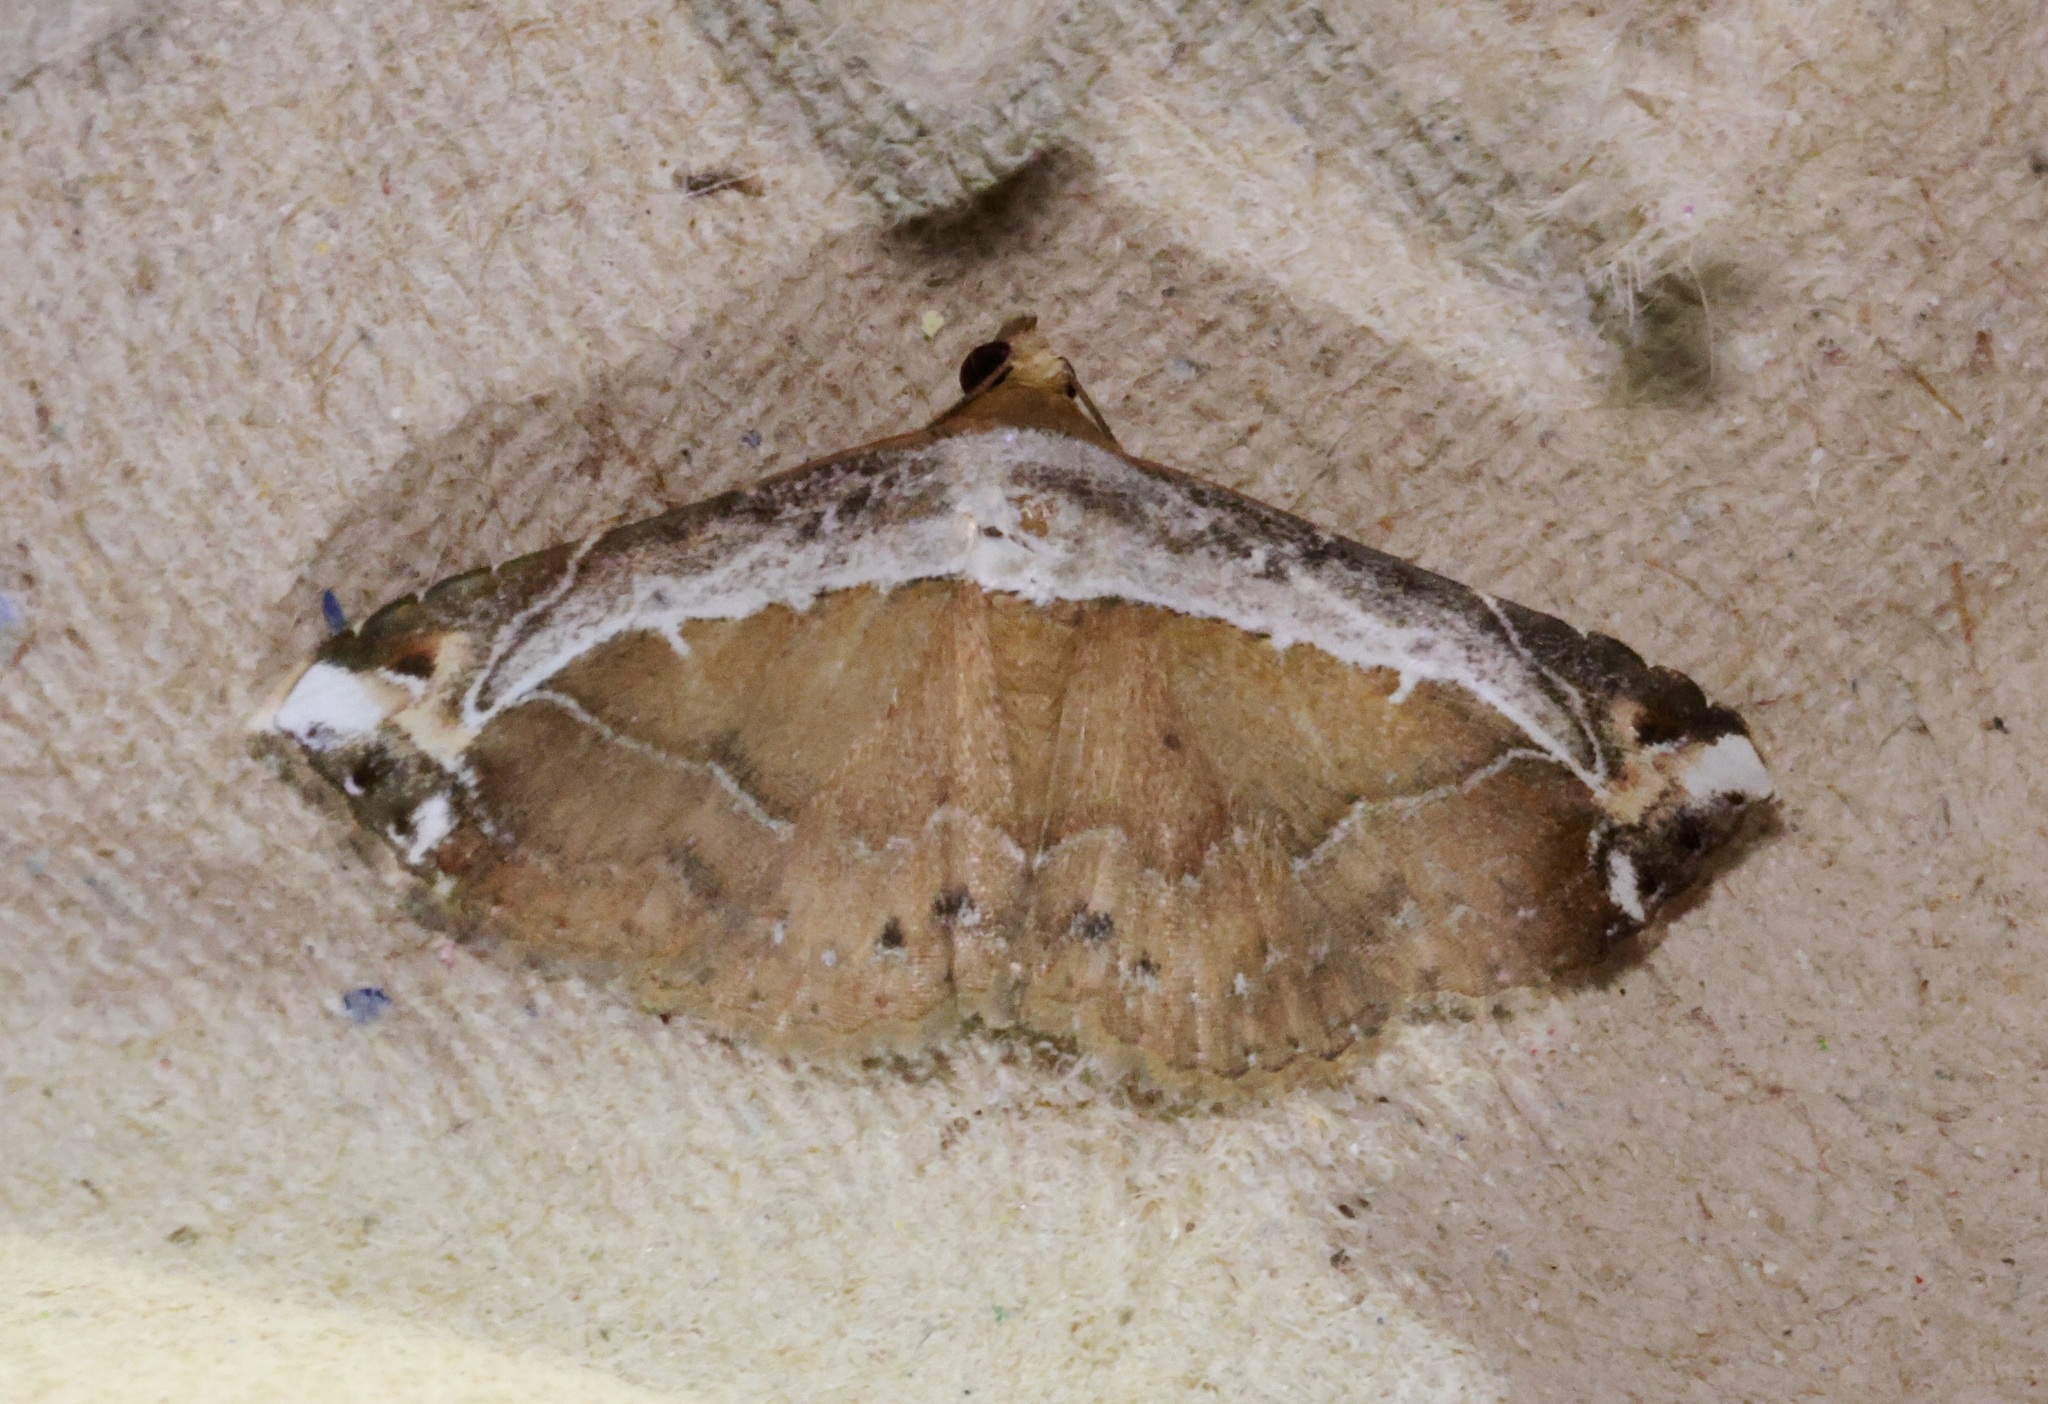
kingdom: Animalia
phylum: Arthropoda
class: Insecta
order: Lepidoptera
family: Erebidae
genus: Zurobata
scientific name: Zurobata vacillans
